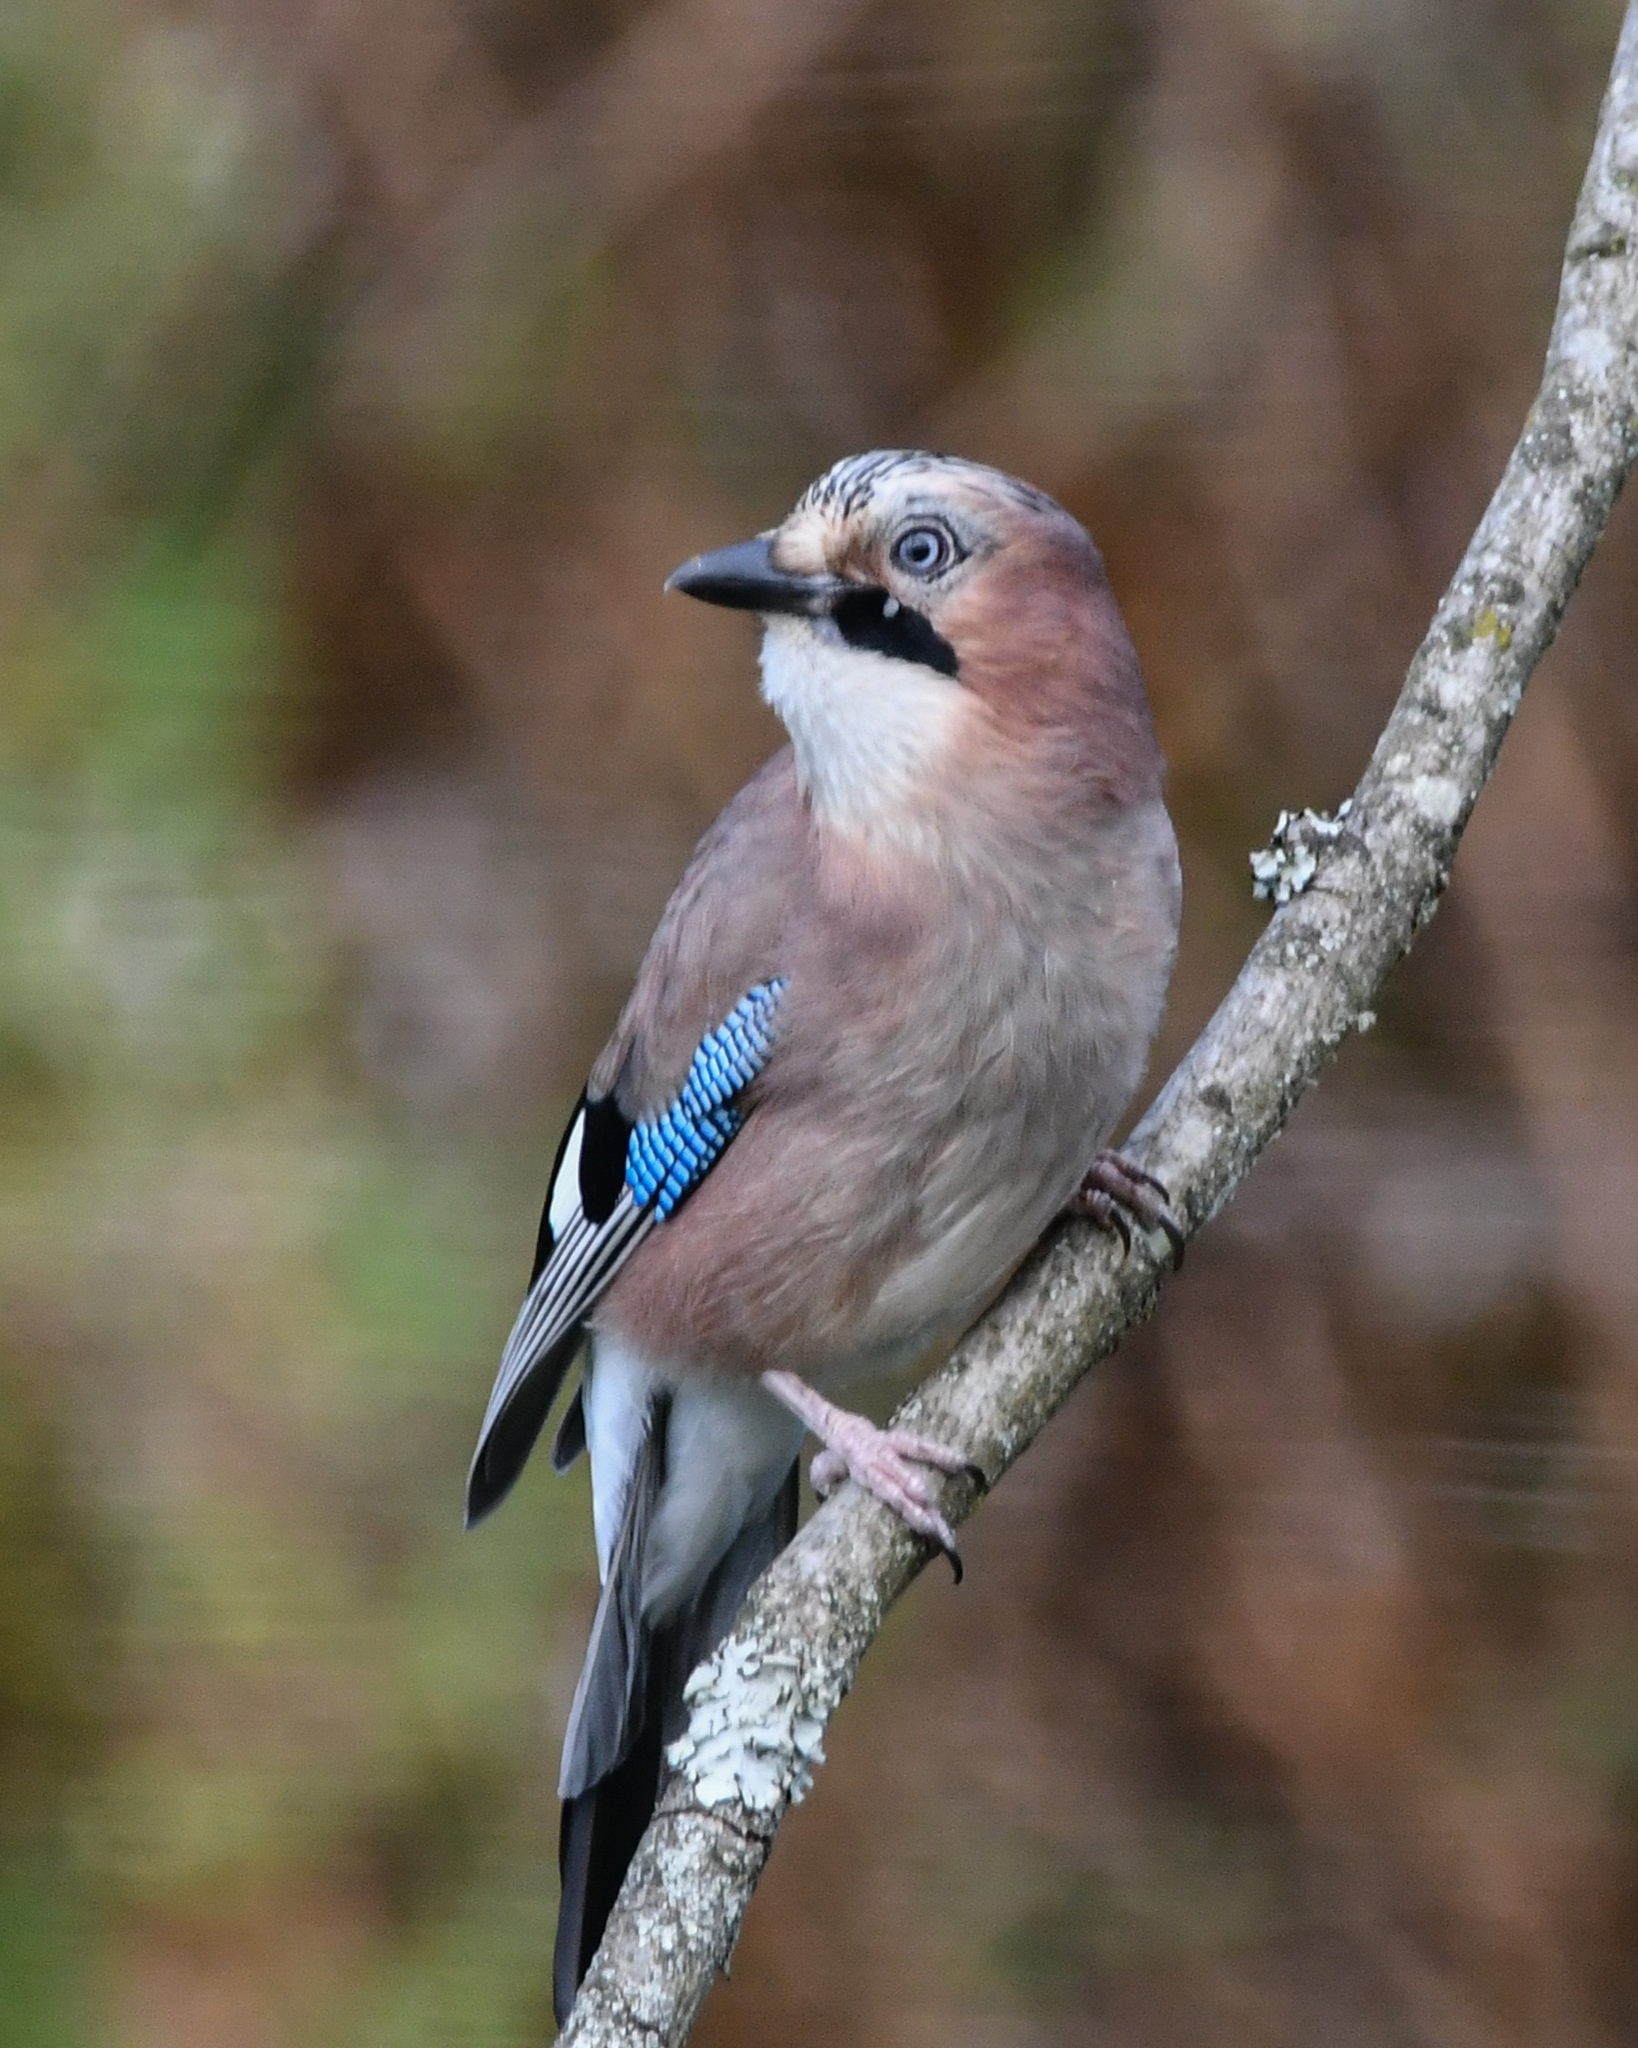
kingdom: Animalia
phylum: Chordata
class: Aves
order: Passeriformes
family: Corvidae
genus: Garrulus
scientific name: Garrulus glandarius
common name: Eurasian jay
